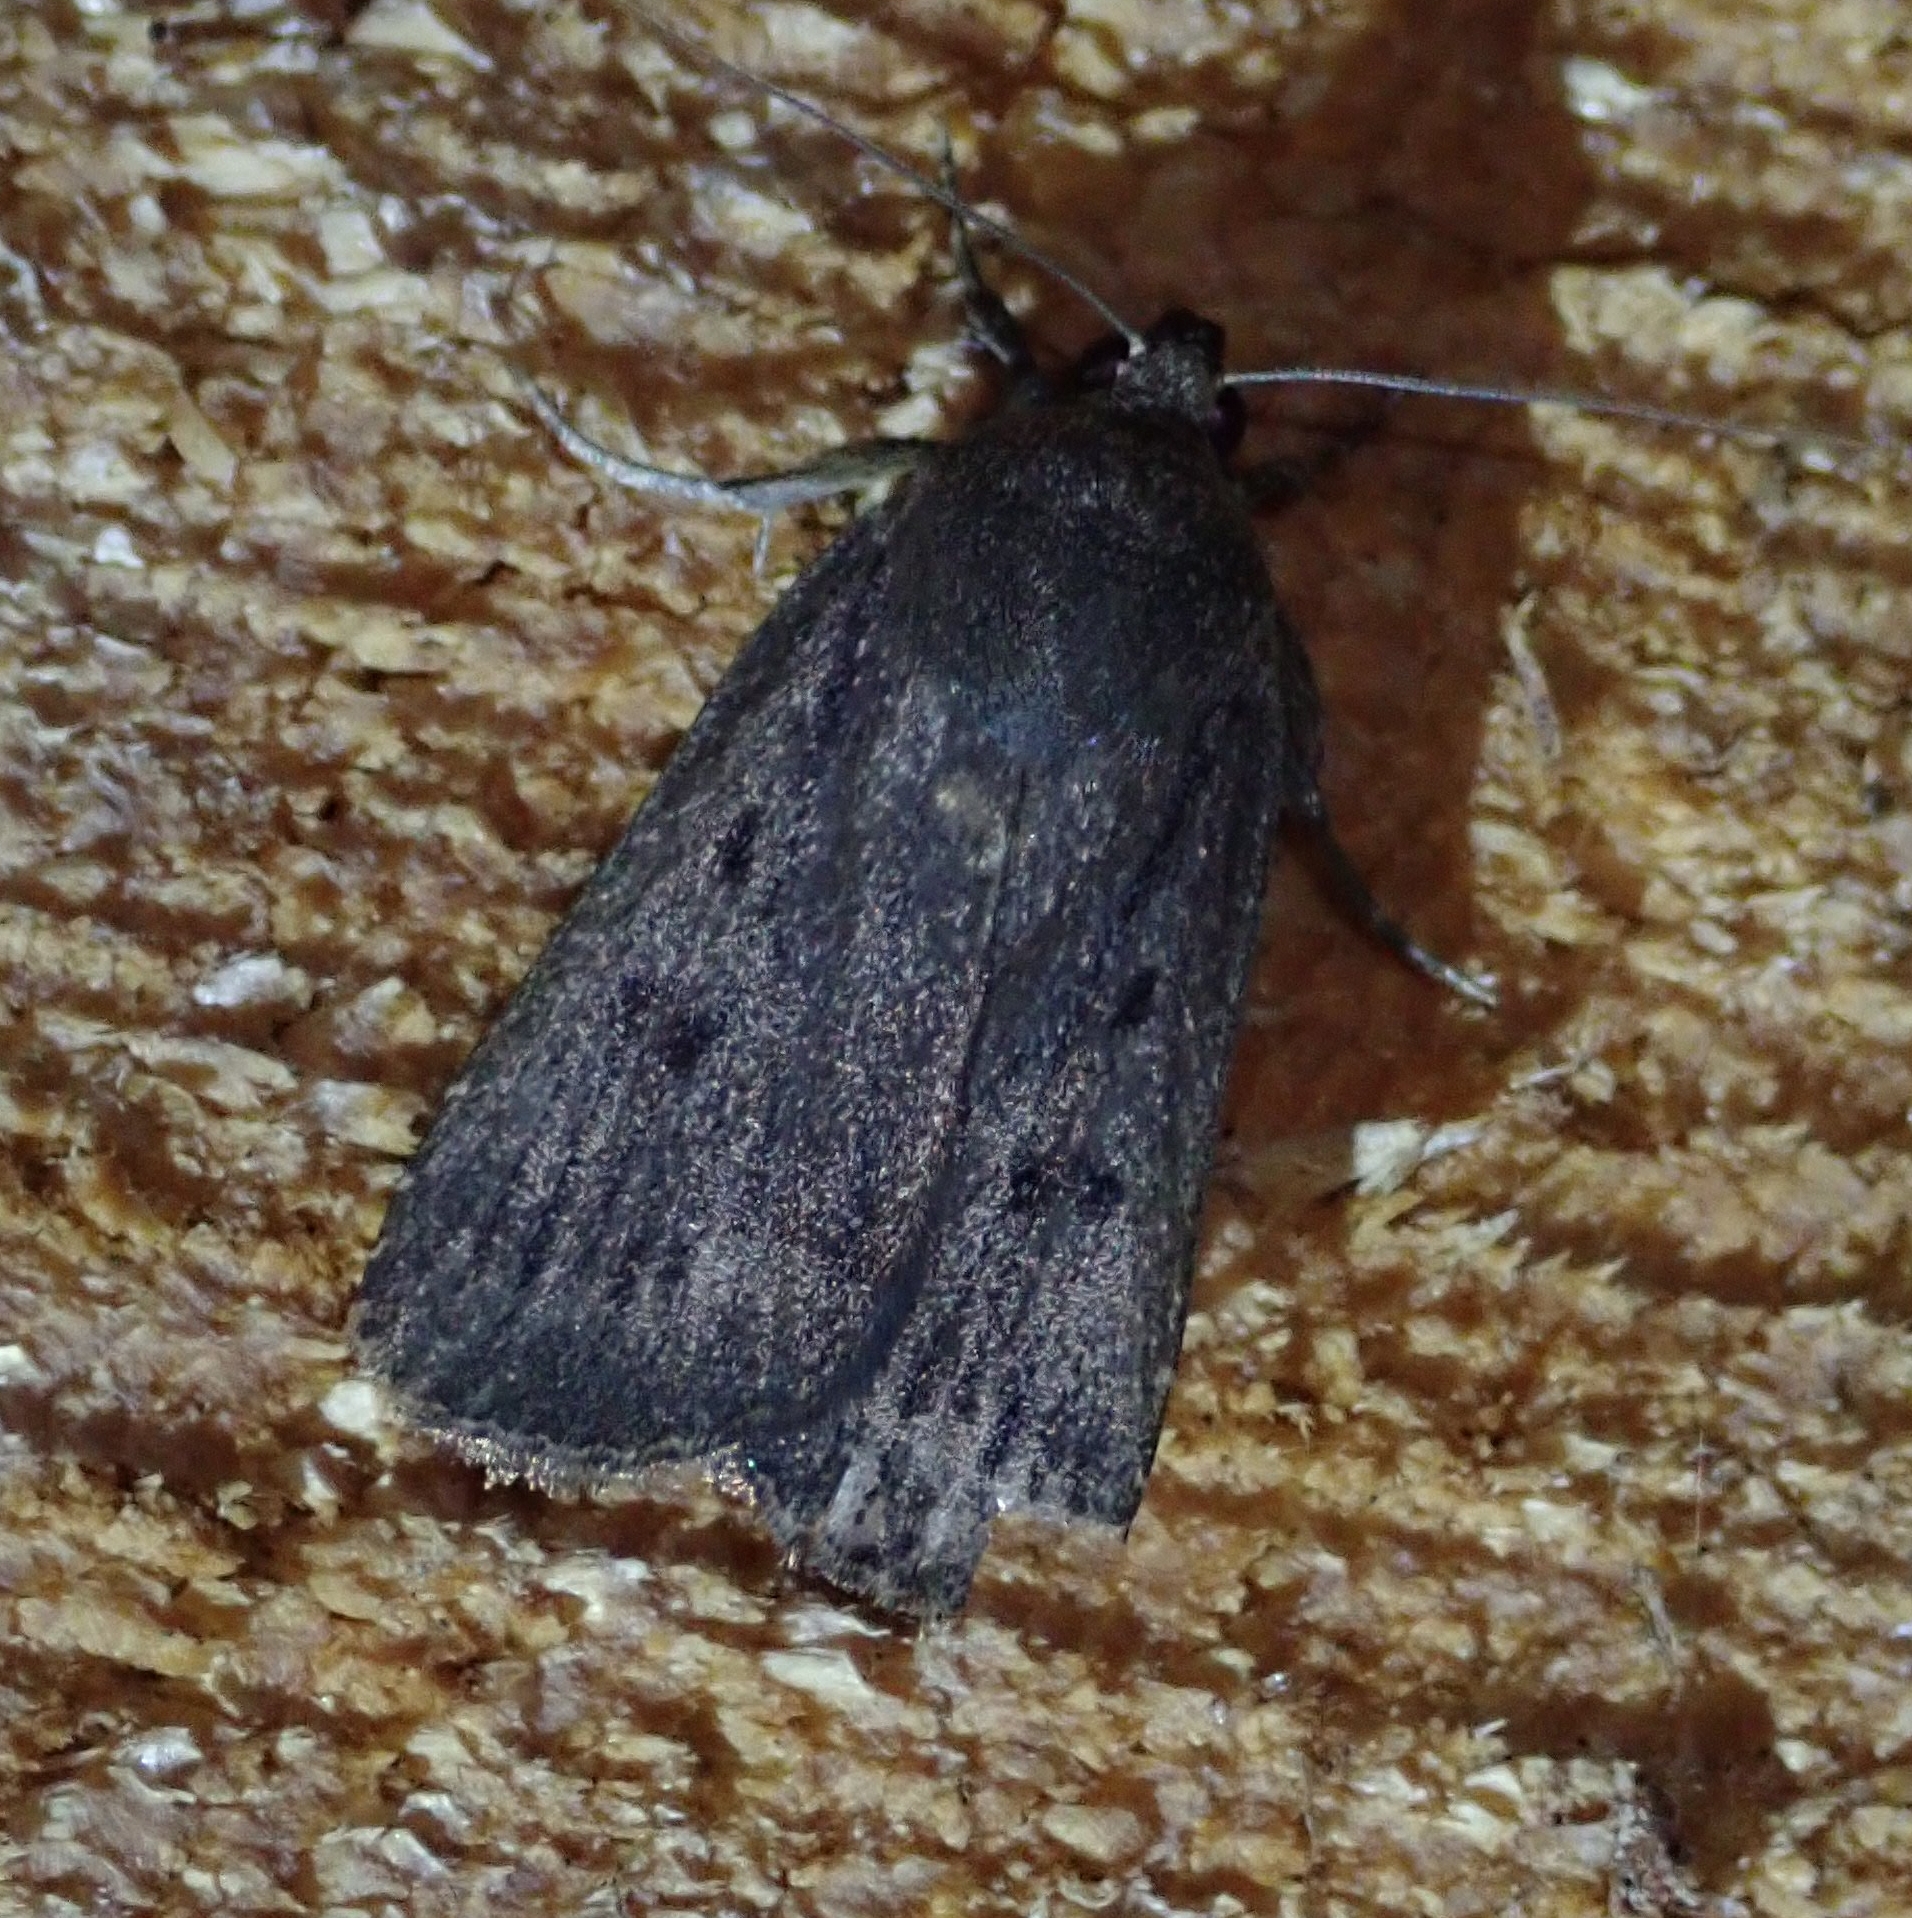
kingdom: Animalia
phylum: Arthropoda
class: Insecta
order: Lepidoptera
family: Noctuidae
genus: Amphipyra
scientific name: Amphipyra tragopoginis
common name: Mouse moth
